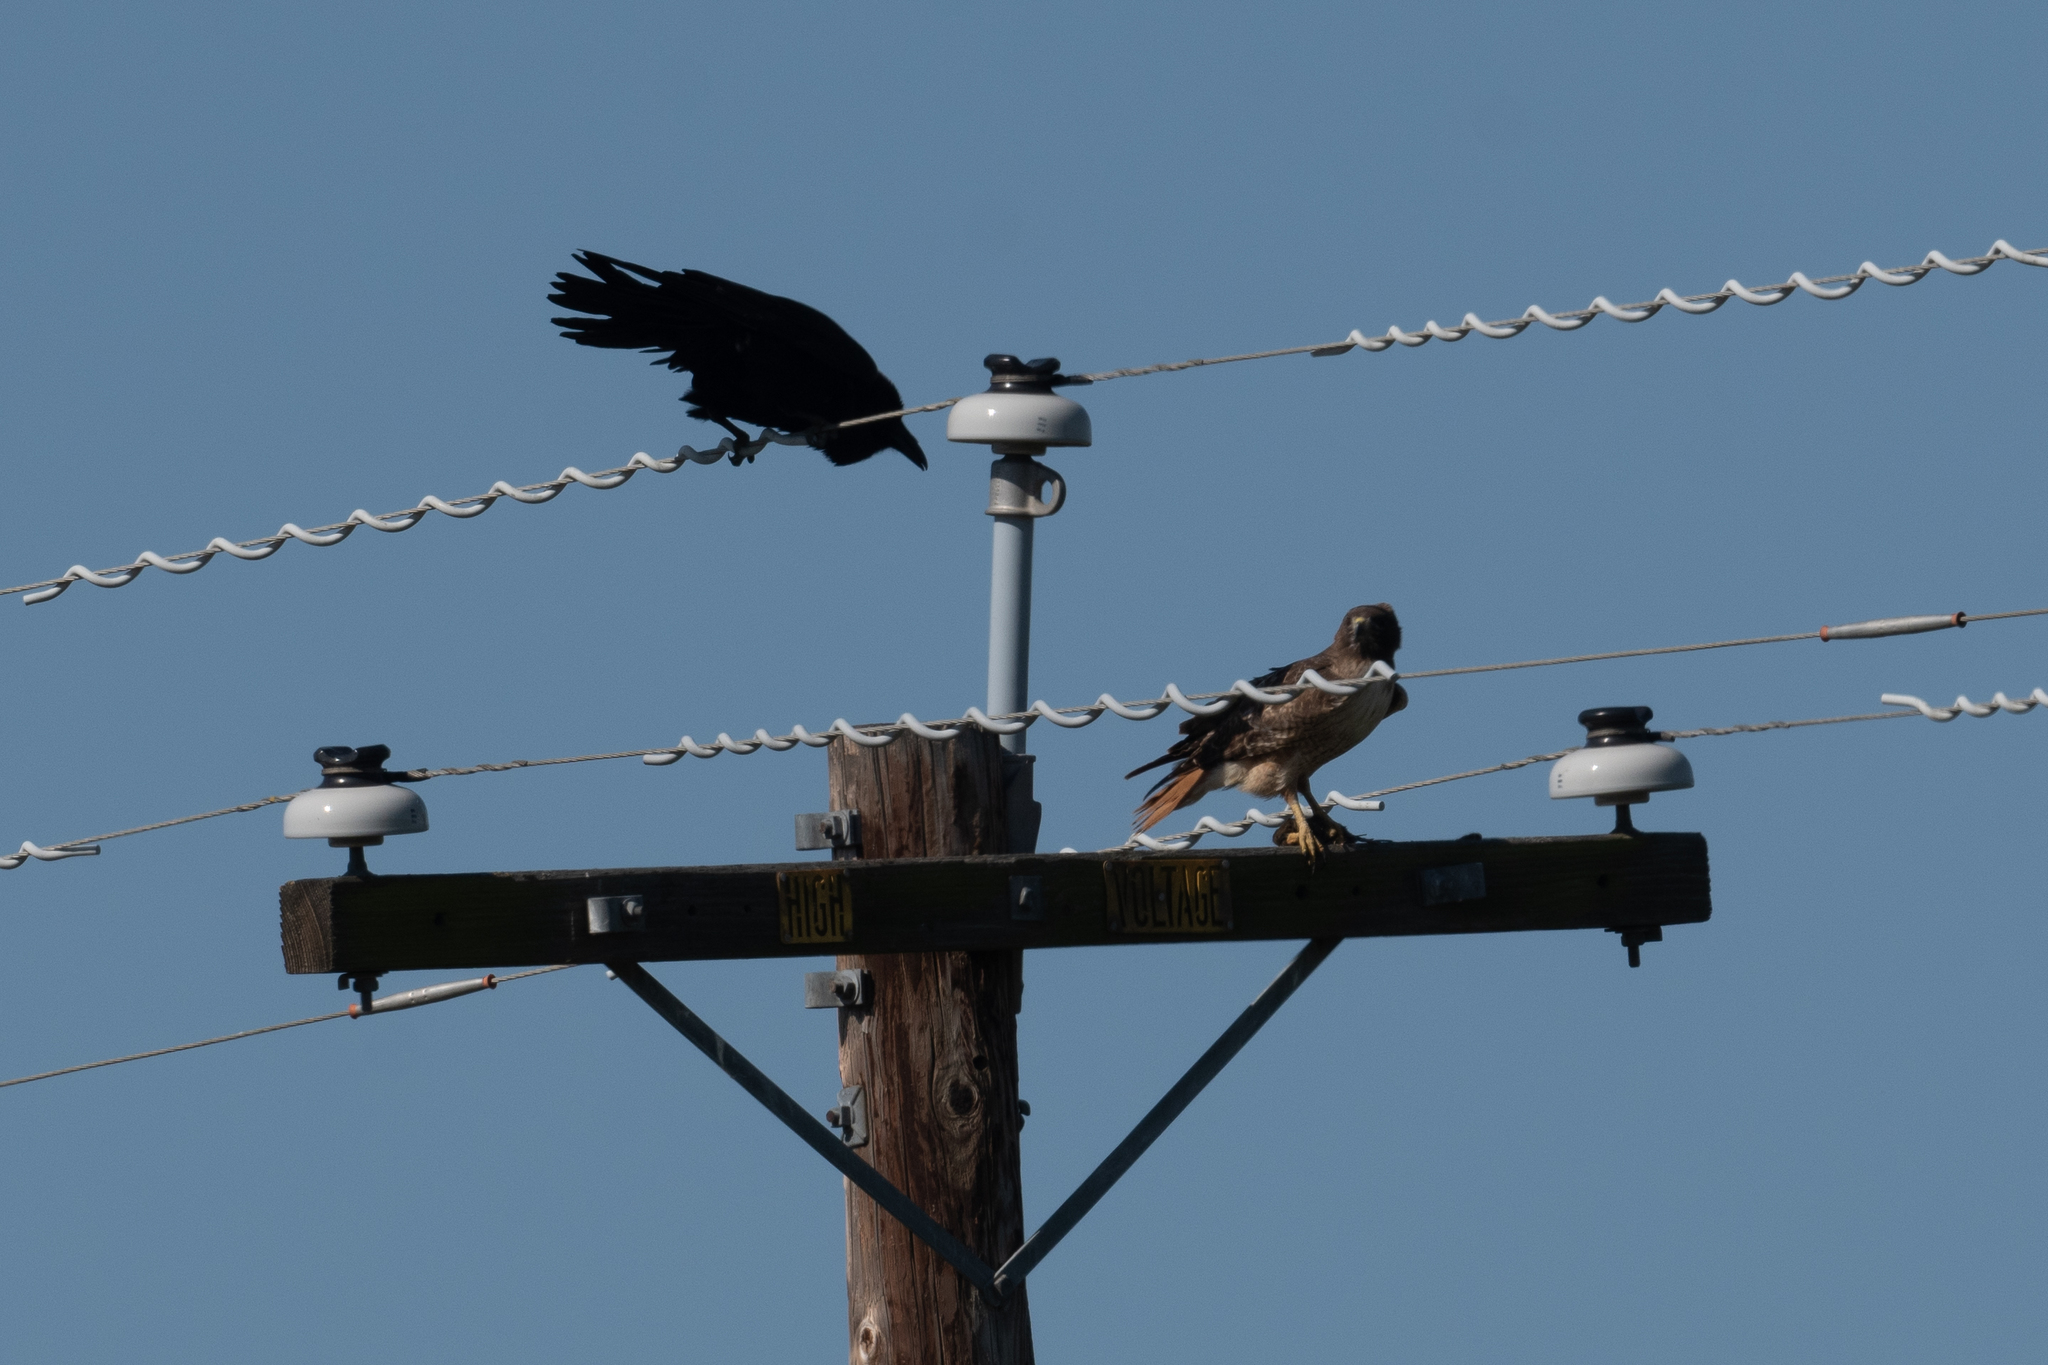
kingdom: Animalia
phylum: Chordata
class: Aves
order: Passeriformes
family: Corvidae
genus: Corvus
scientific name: Corvus corax
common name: Common raven
